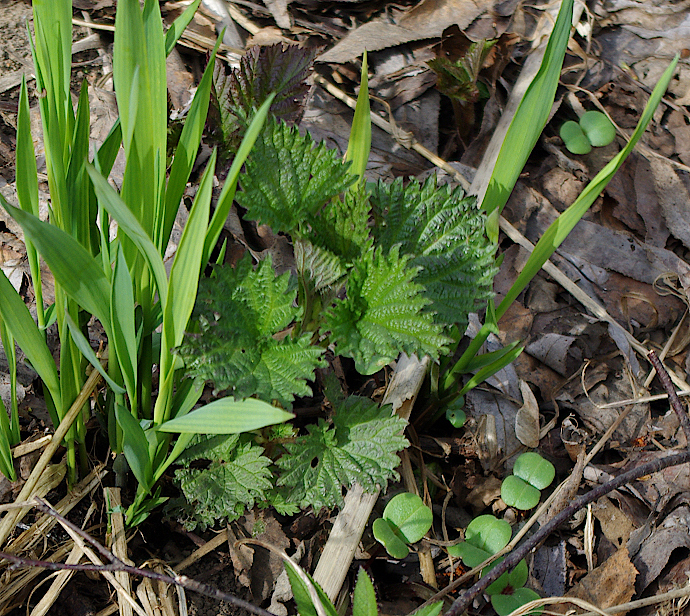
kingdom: Plantae
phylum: Tracheophyta
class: Liliopsida
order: Poales
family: Poaceae
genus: Milium
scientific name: Milium effusum
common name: Wood millet
